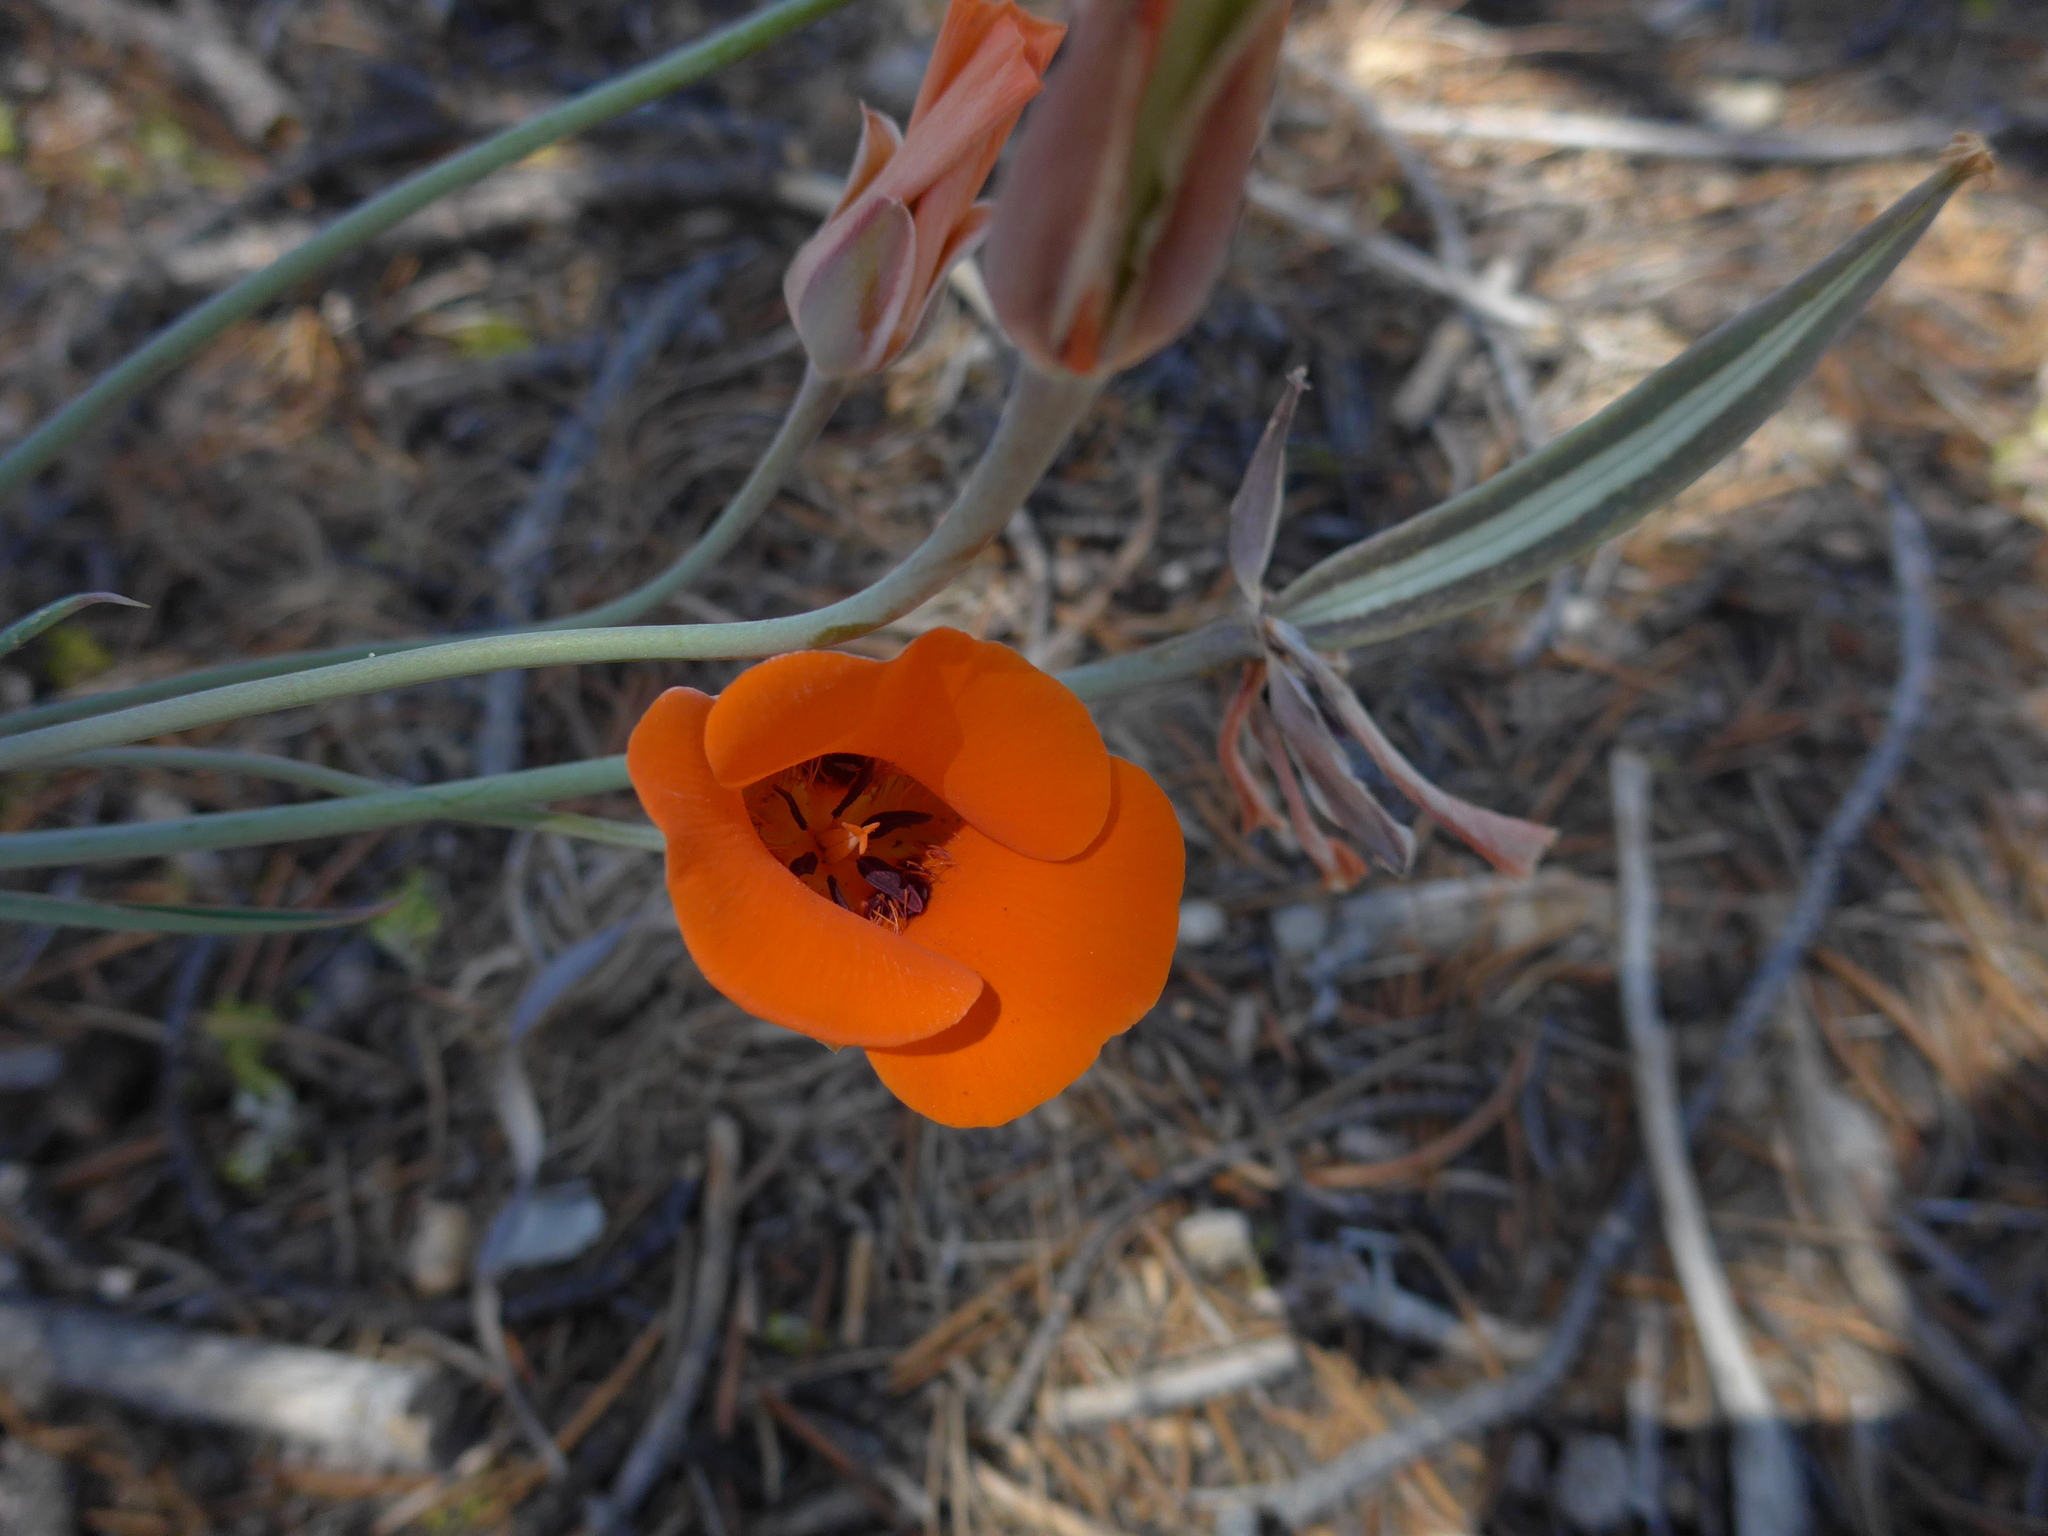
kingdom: Plantae
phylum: Tracheophyta
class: Liliopsida
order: Liliales
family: Liliaceae
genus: Calochortus
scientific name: Calochortus kennedyi
